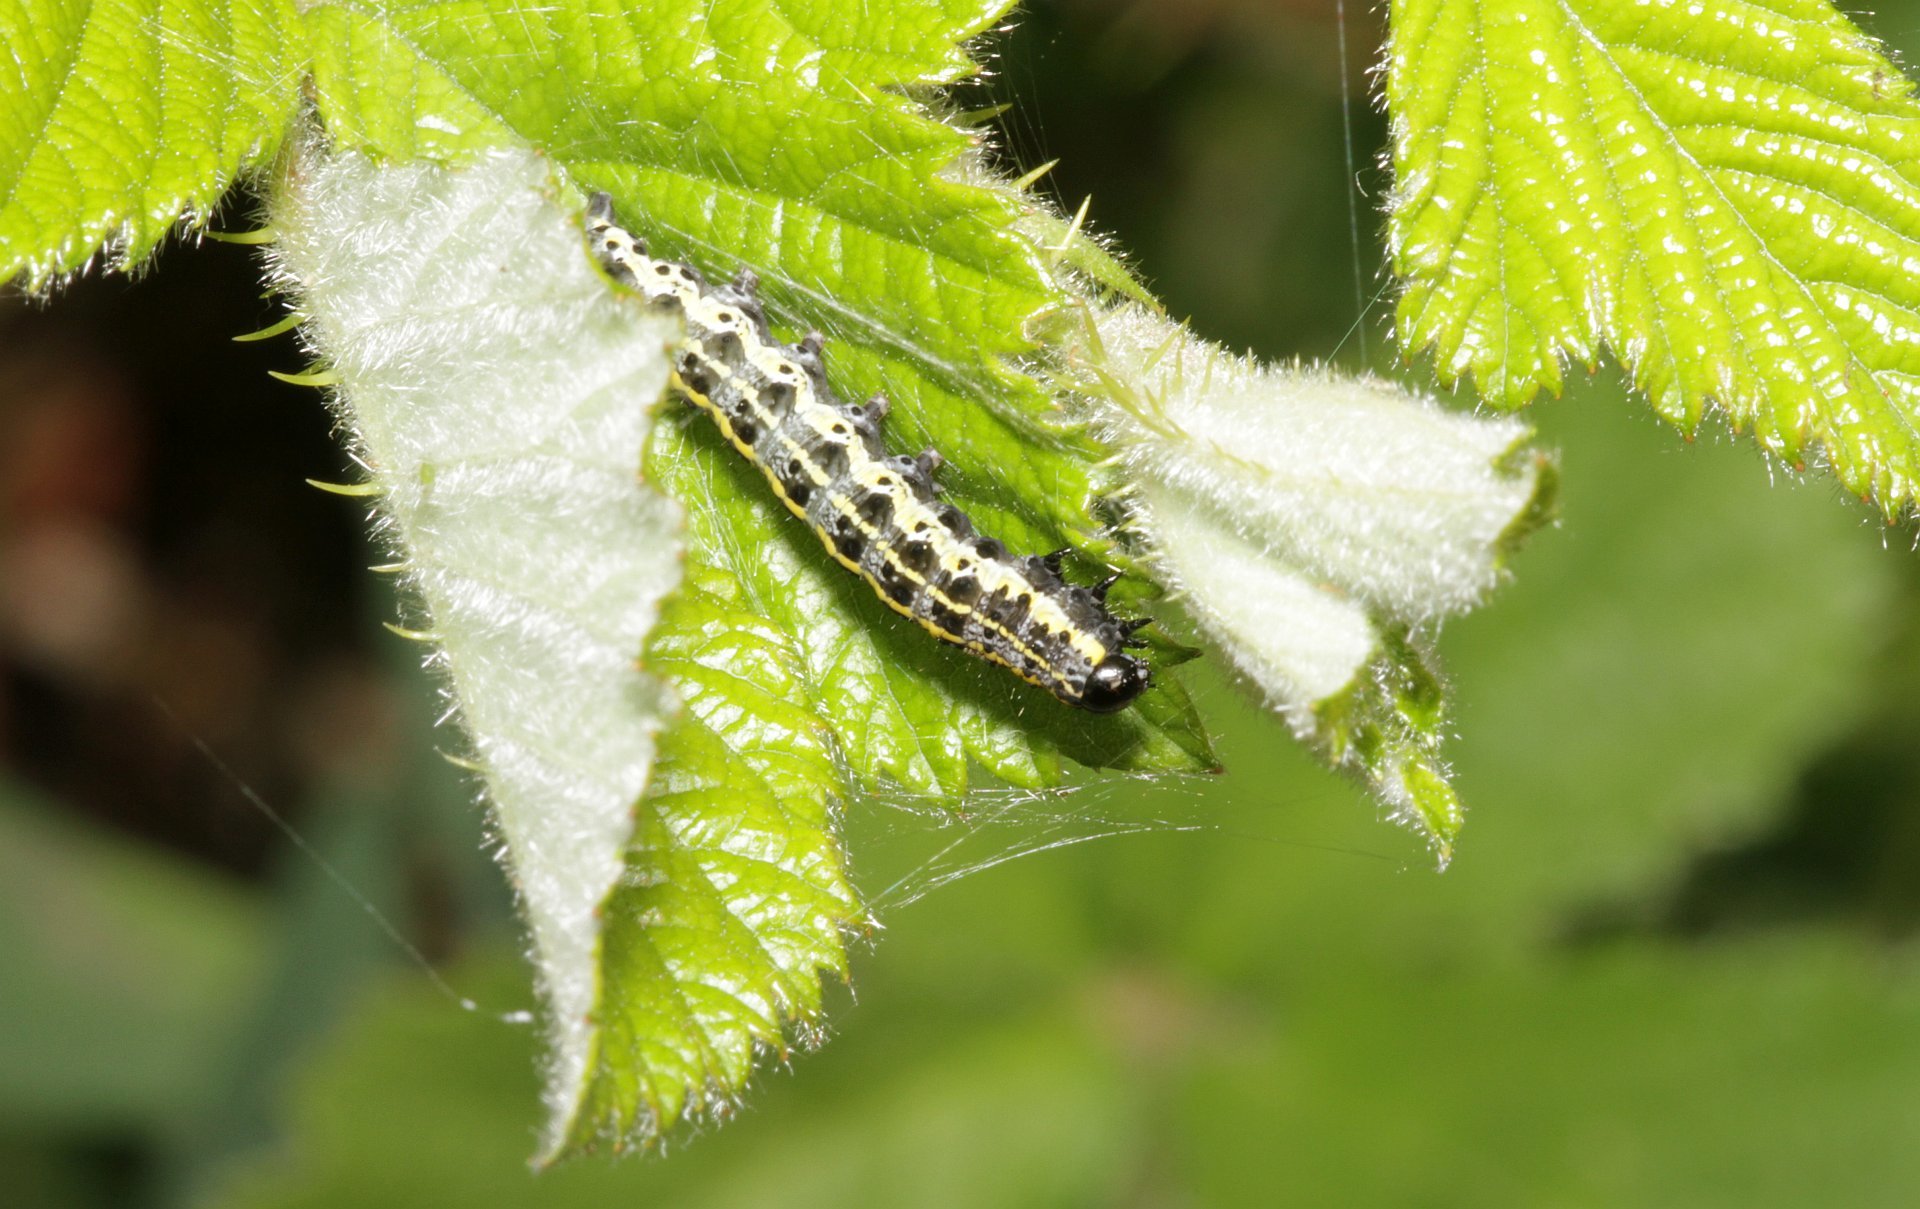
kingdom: Animalia
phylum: Arthropoda
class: Insecta
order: Lepidoptera
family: Noctuidae
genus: Orthosia
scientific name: Orthosia miniosa
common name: Blossom underwing
